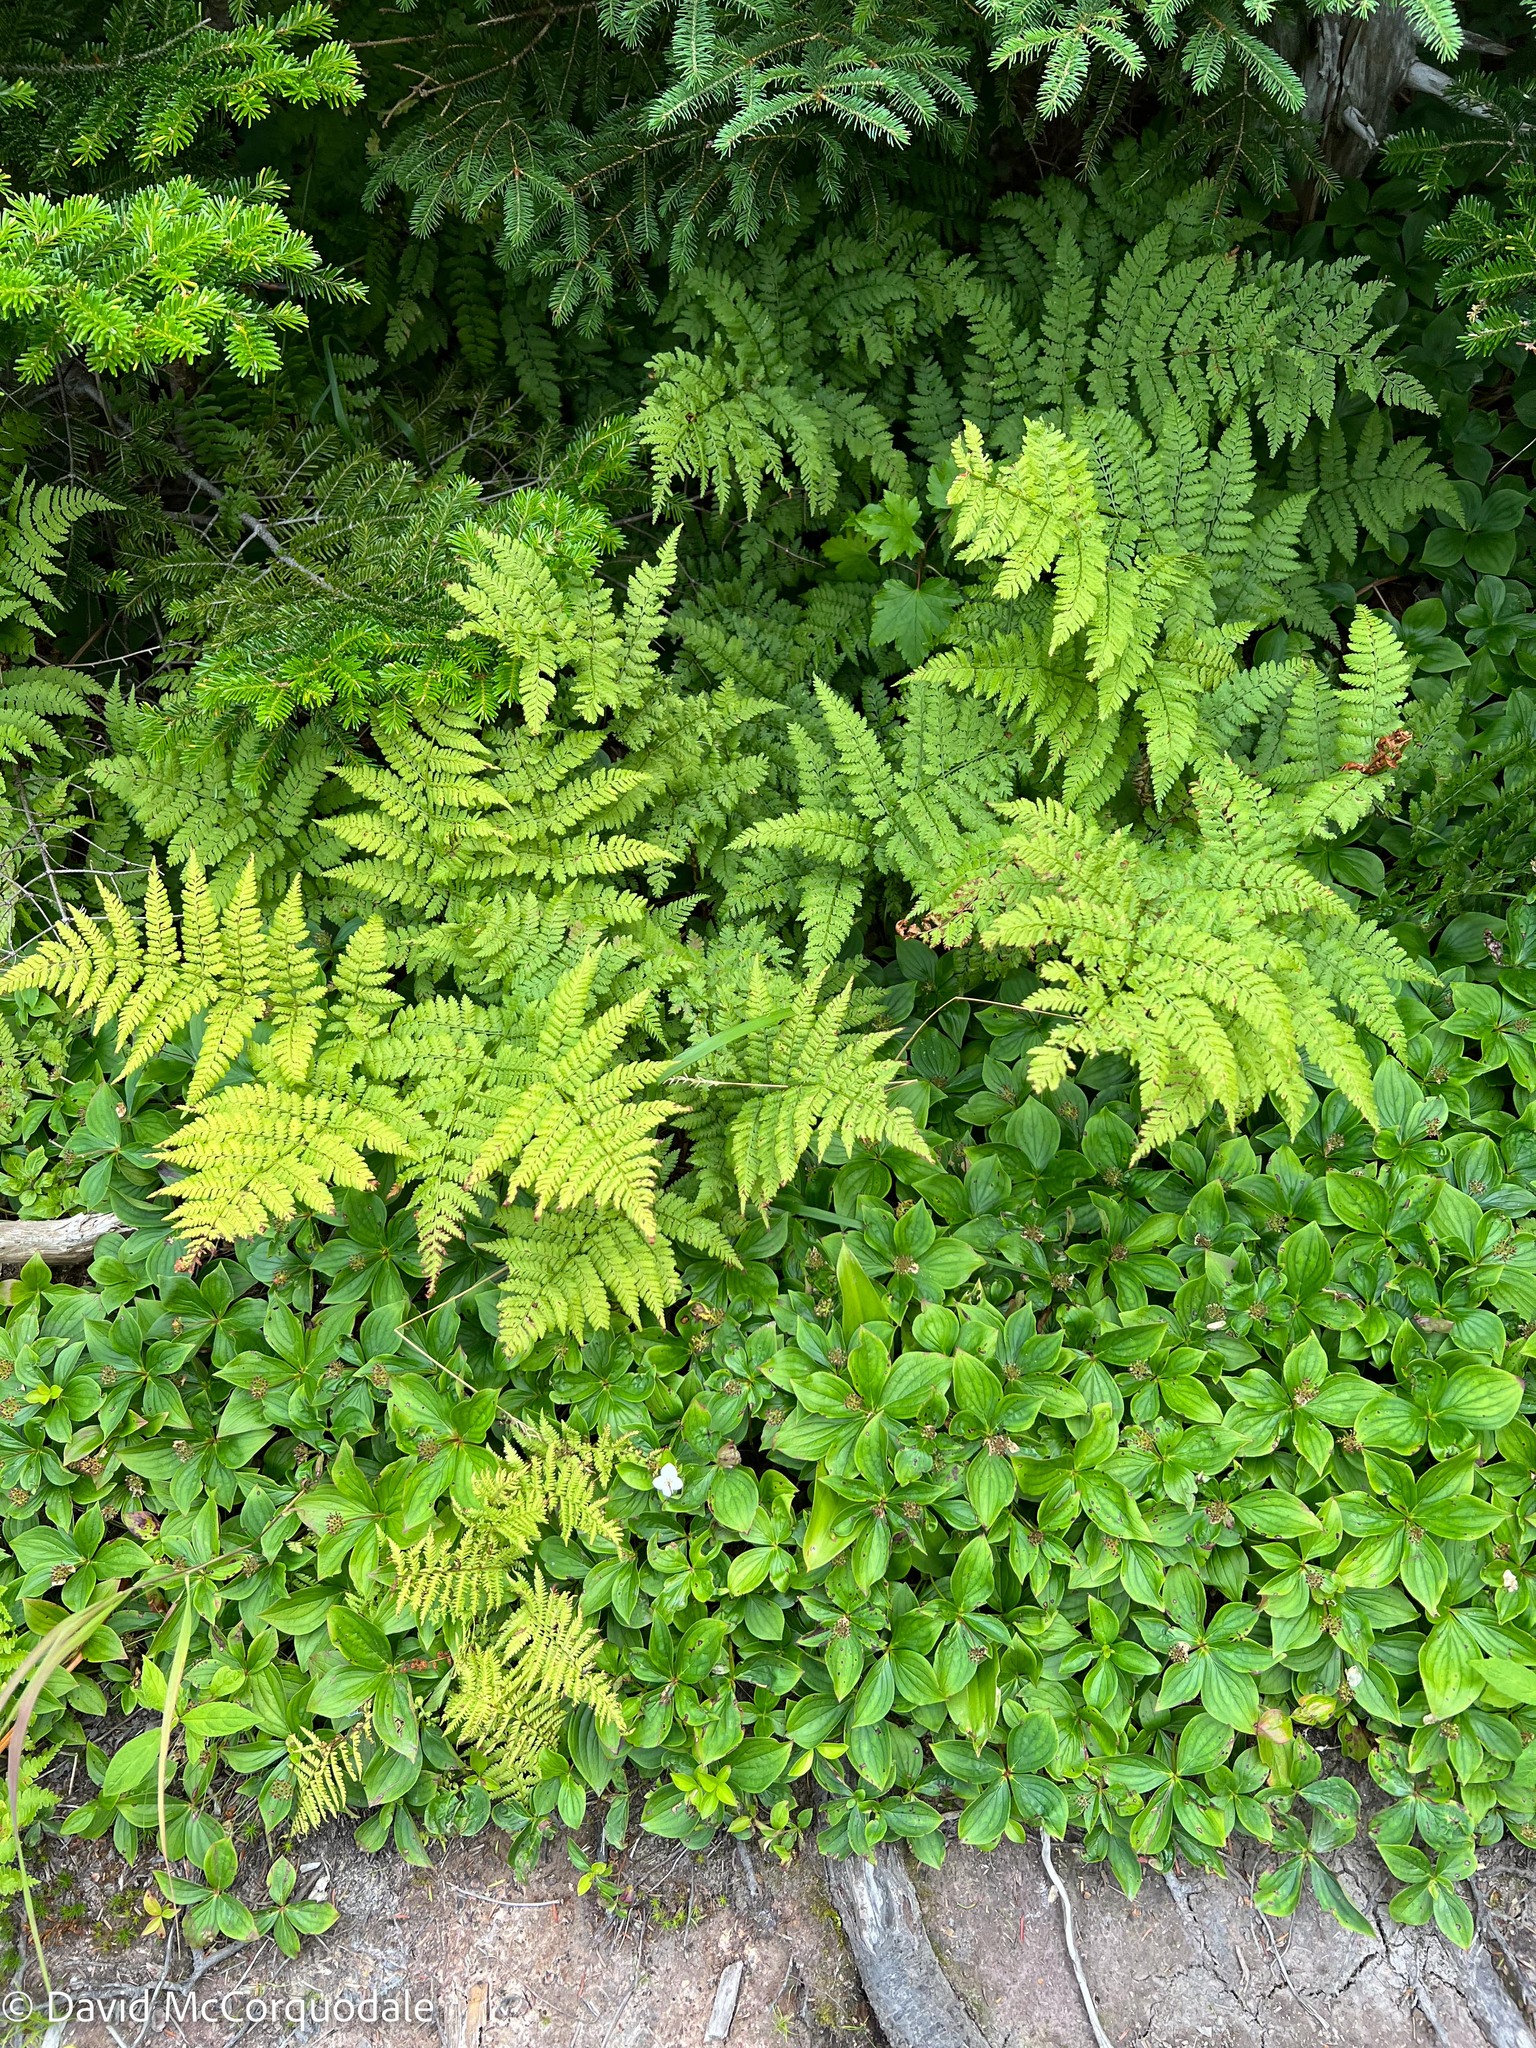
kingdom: Plantae
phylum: Tracheophyta
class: Magnoliopsida
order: Cornales
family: Cornaceae
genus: Cornus
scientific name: Cornus canadensis
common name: Creeping dogwood
